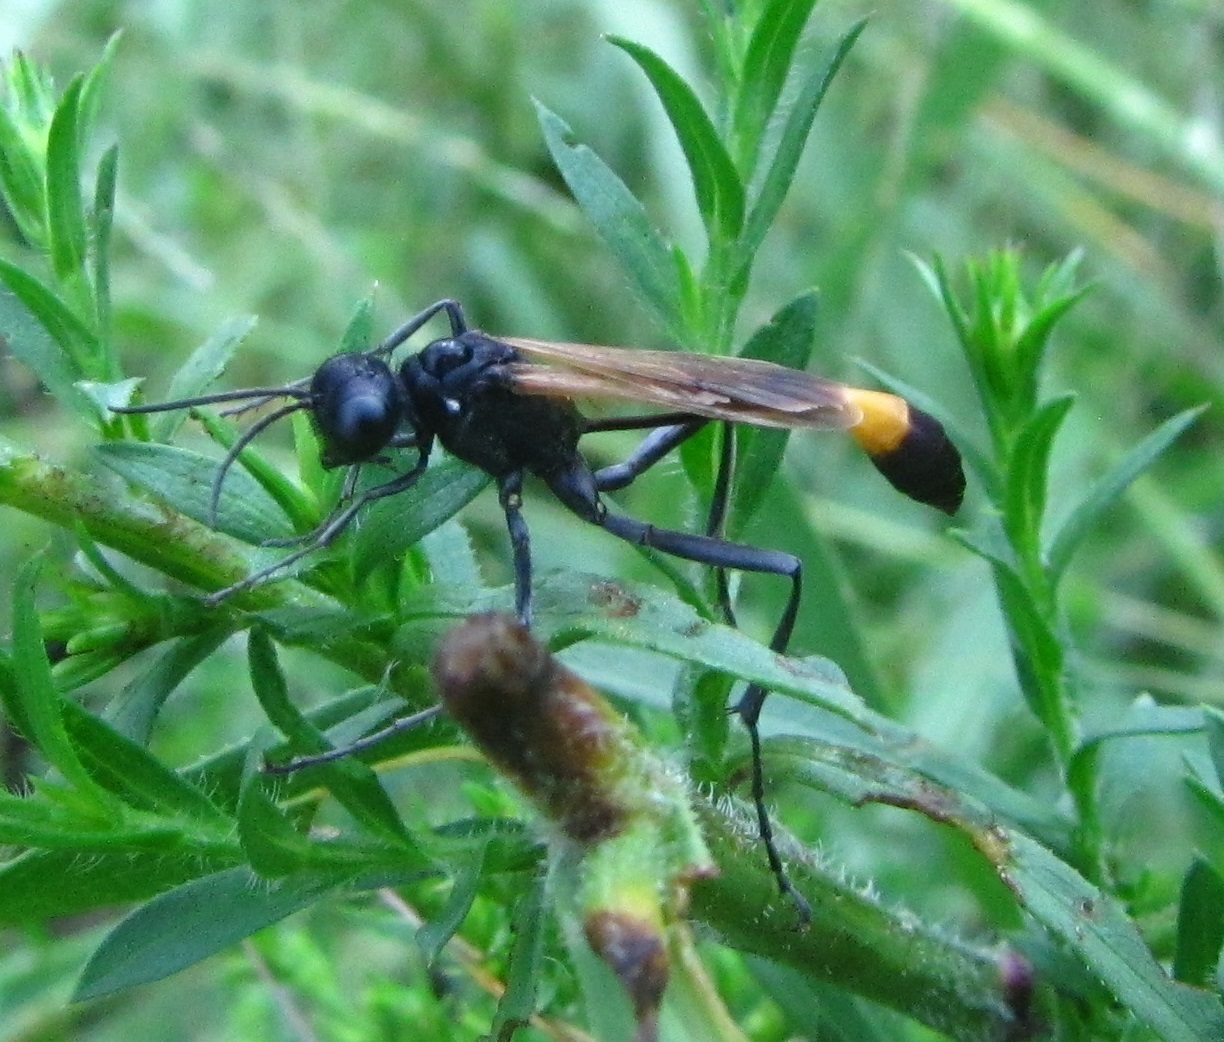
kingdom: Animalia
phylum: Arthropoda
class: Insecta
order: Hymenoptera
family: Sphecidae
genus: Ammophila
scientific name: Ammophila pictipennis
